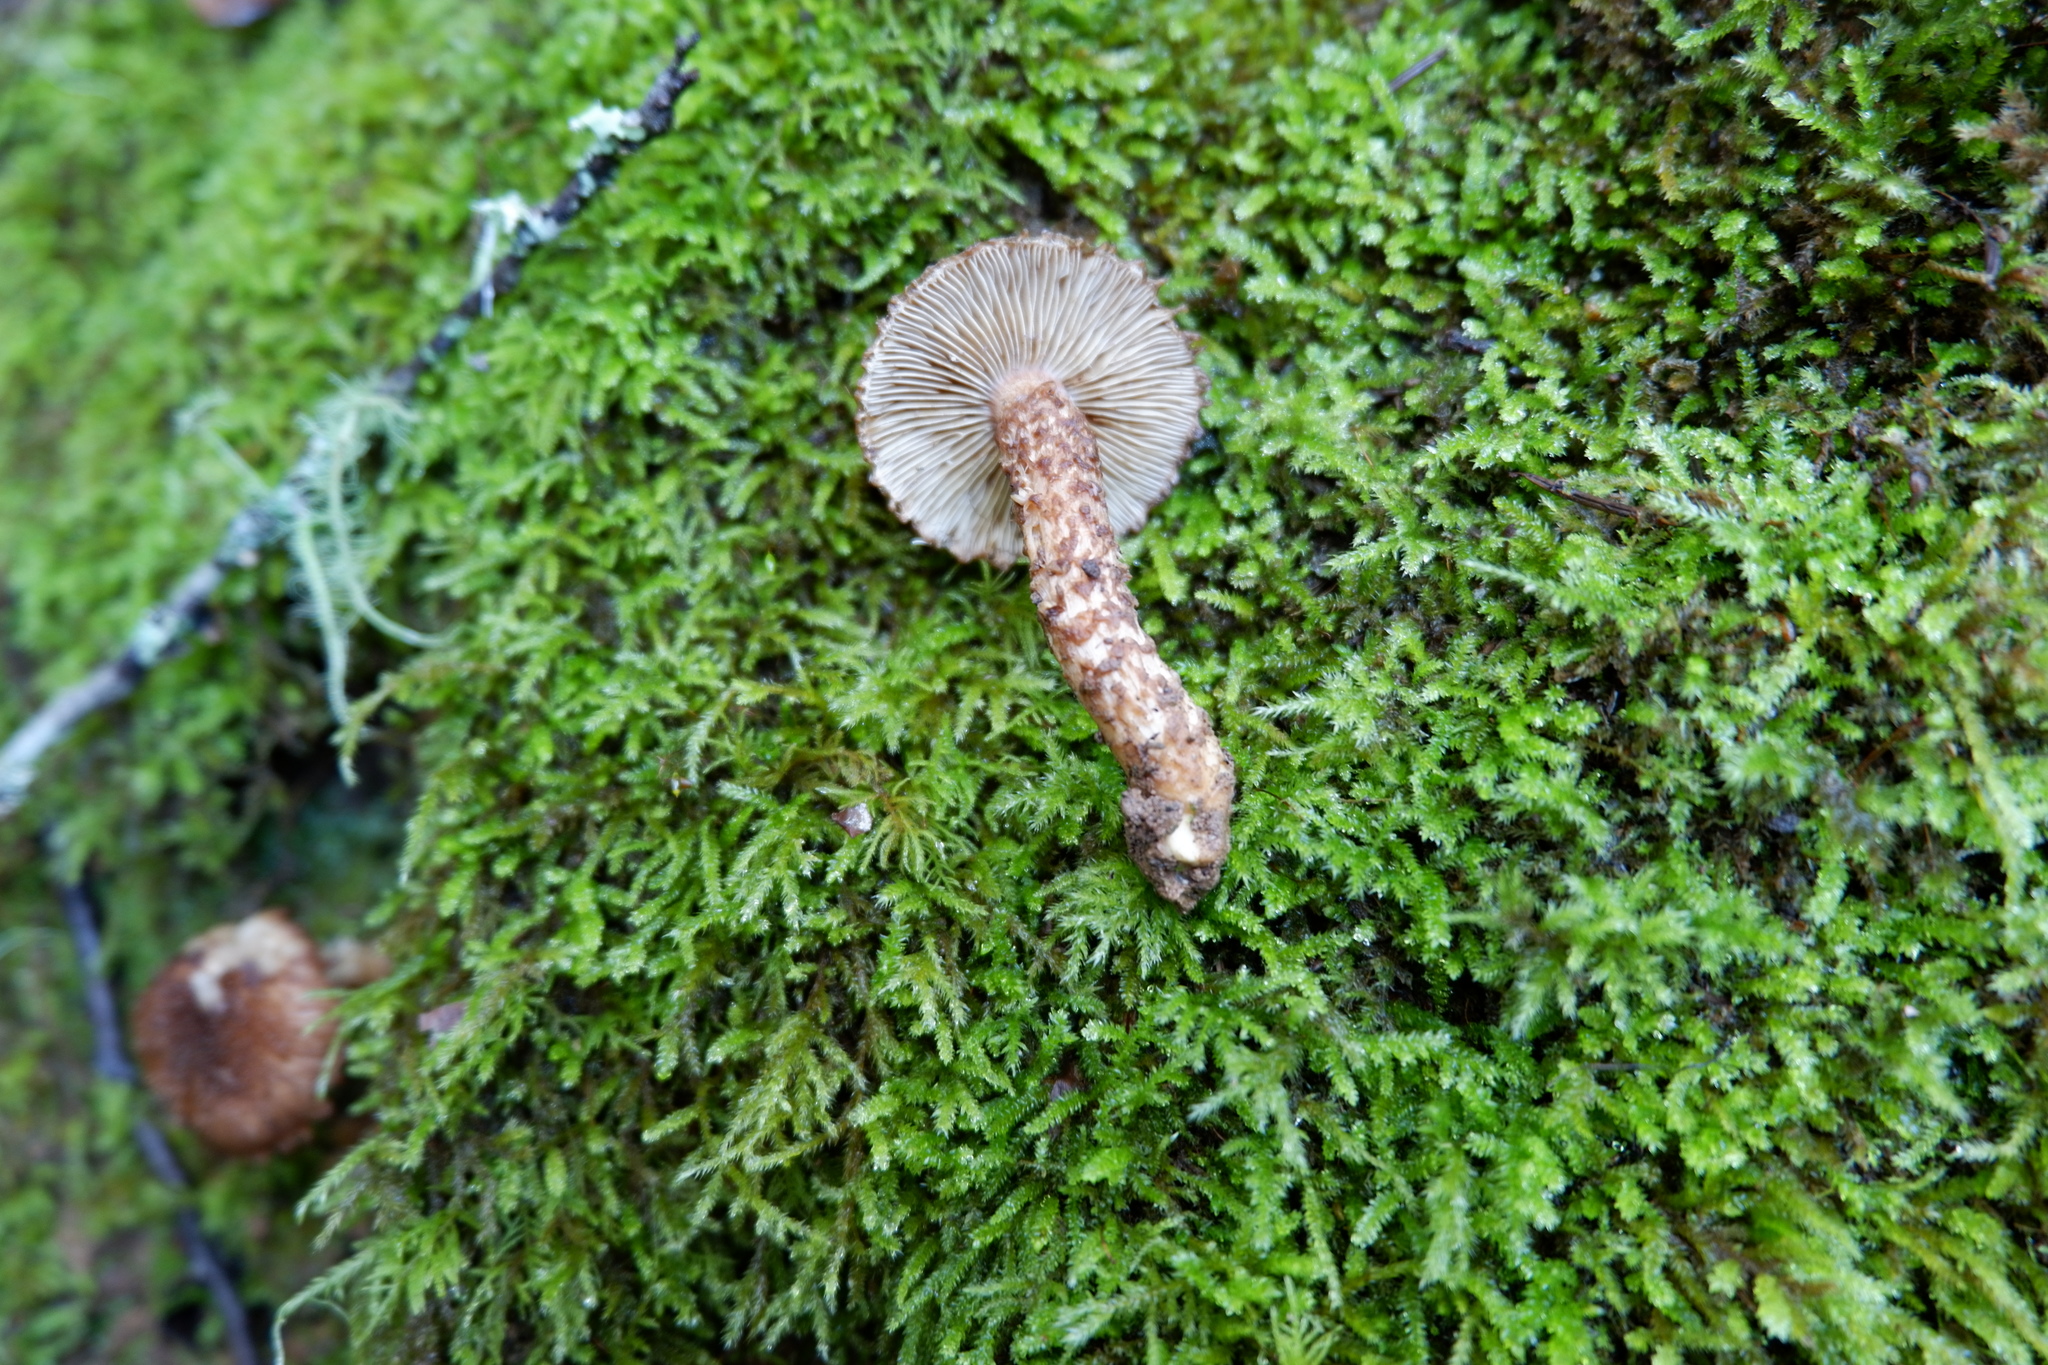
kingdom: Fungi
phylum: Basidiomycota
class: Agaricomycetes
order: Agaricales
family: Inocybaceae
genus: Inocybe
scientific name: Inocybe hystrix
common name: Scaly fibrecap
